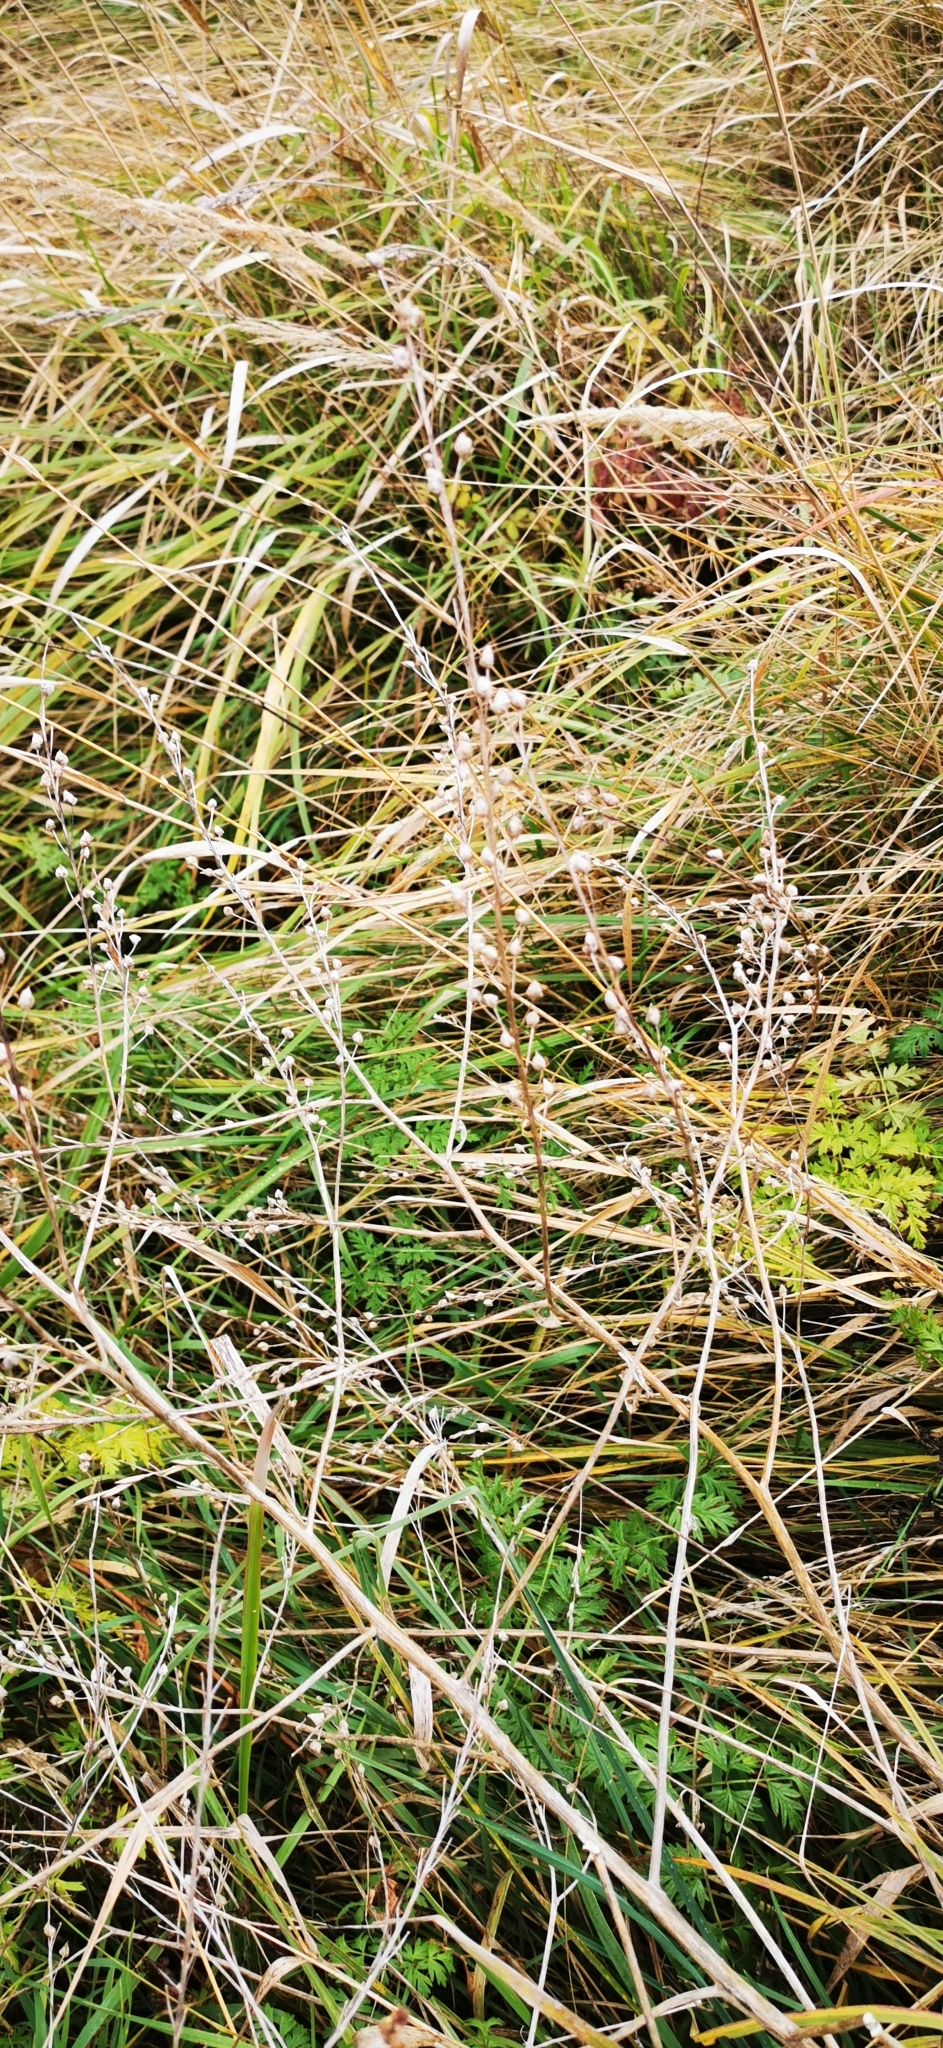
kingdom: Plantae
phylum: Tracheophyta
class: Magnoliopsida
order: Brassicales
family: Brassicaceae
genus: Bunias
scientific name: Bunias orientalis
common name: Warty-cabbage
